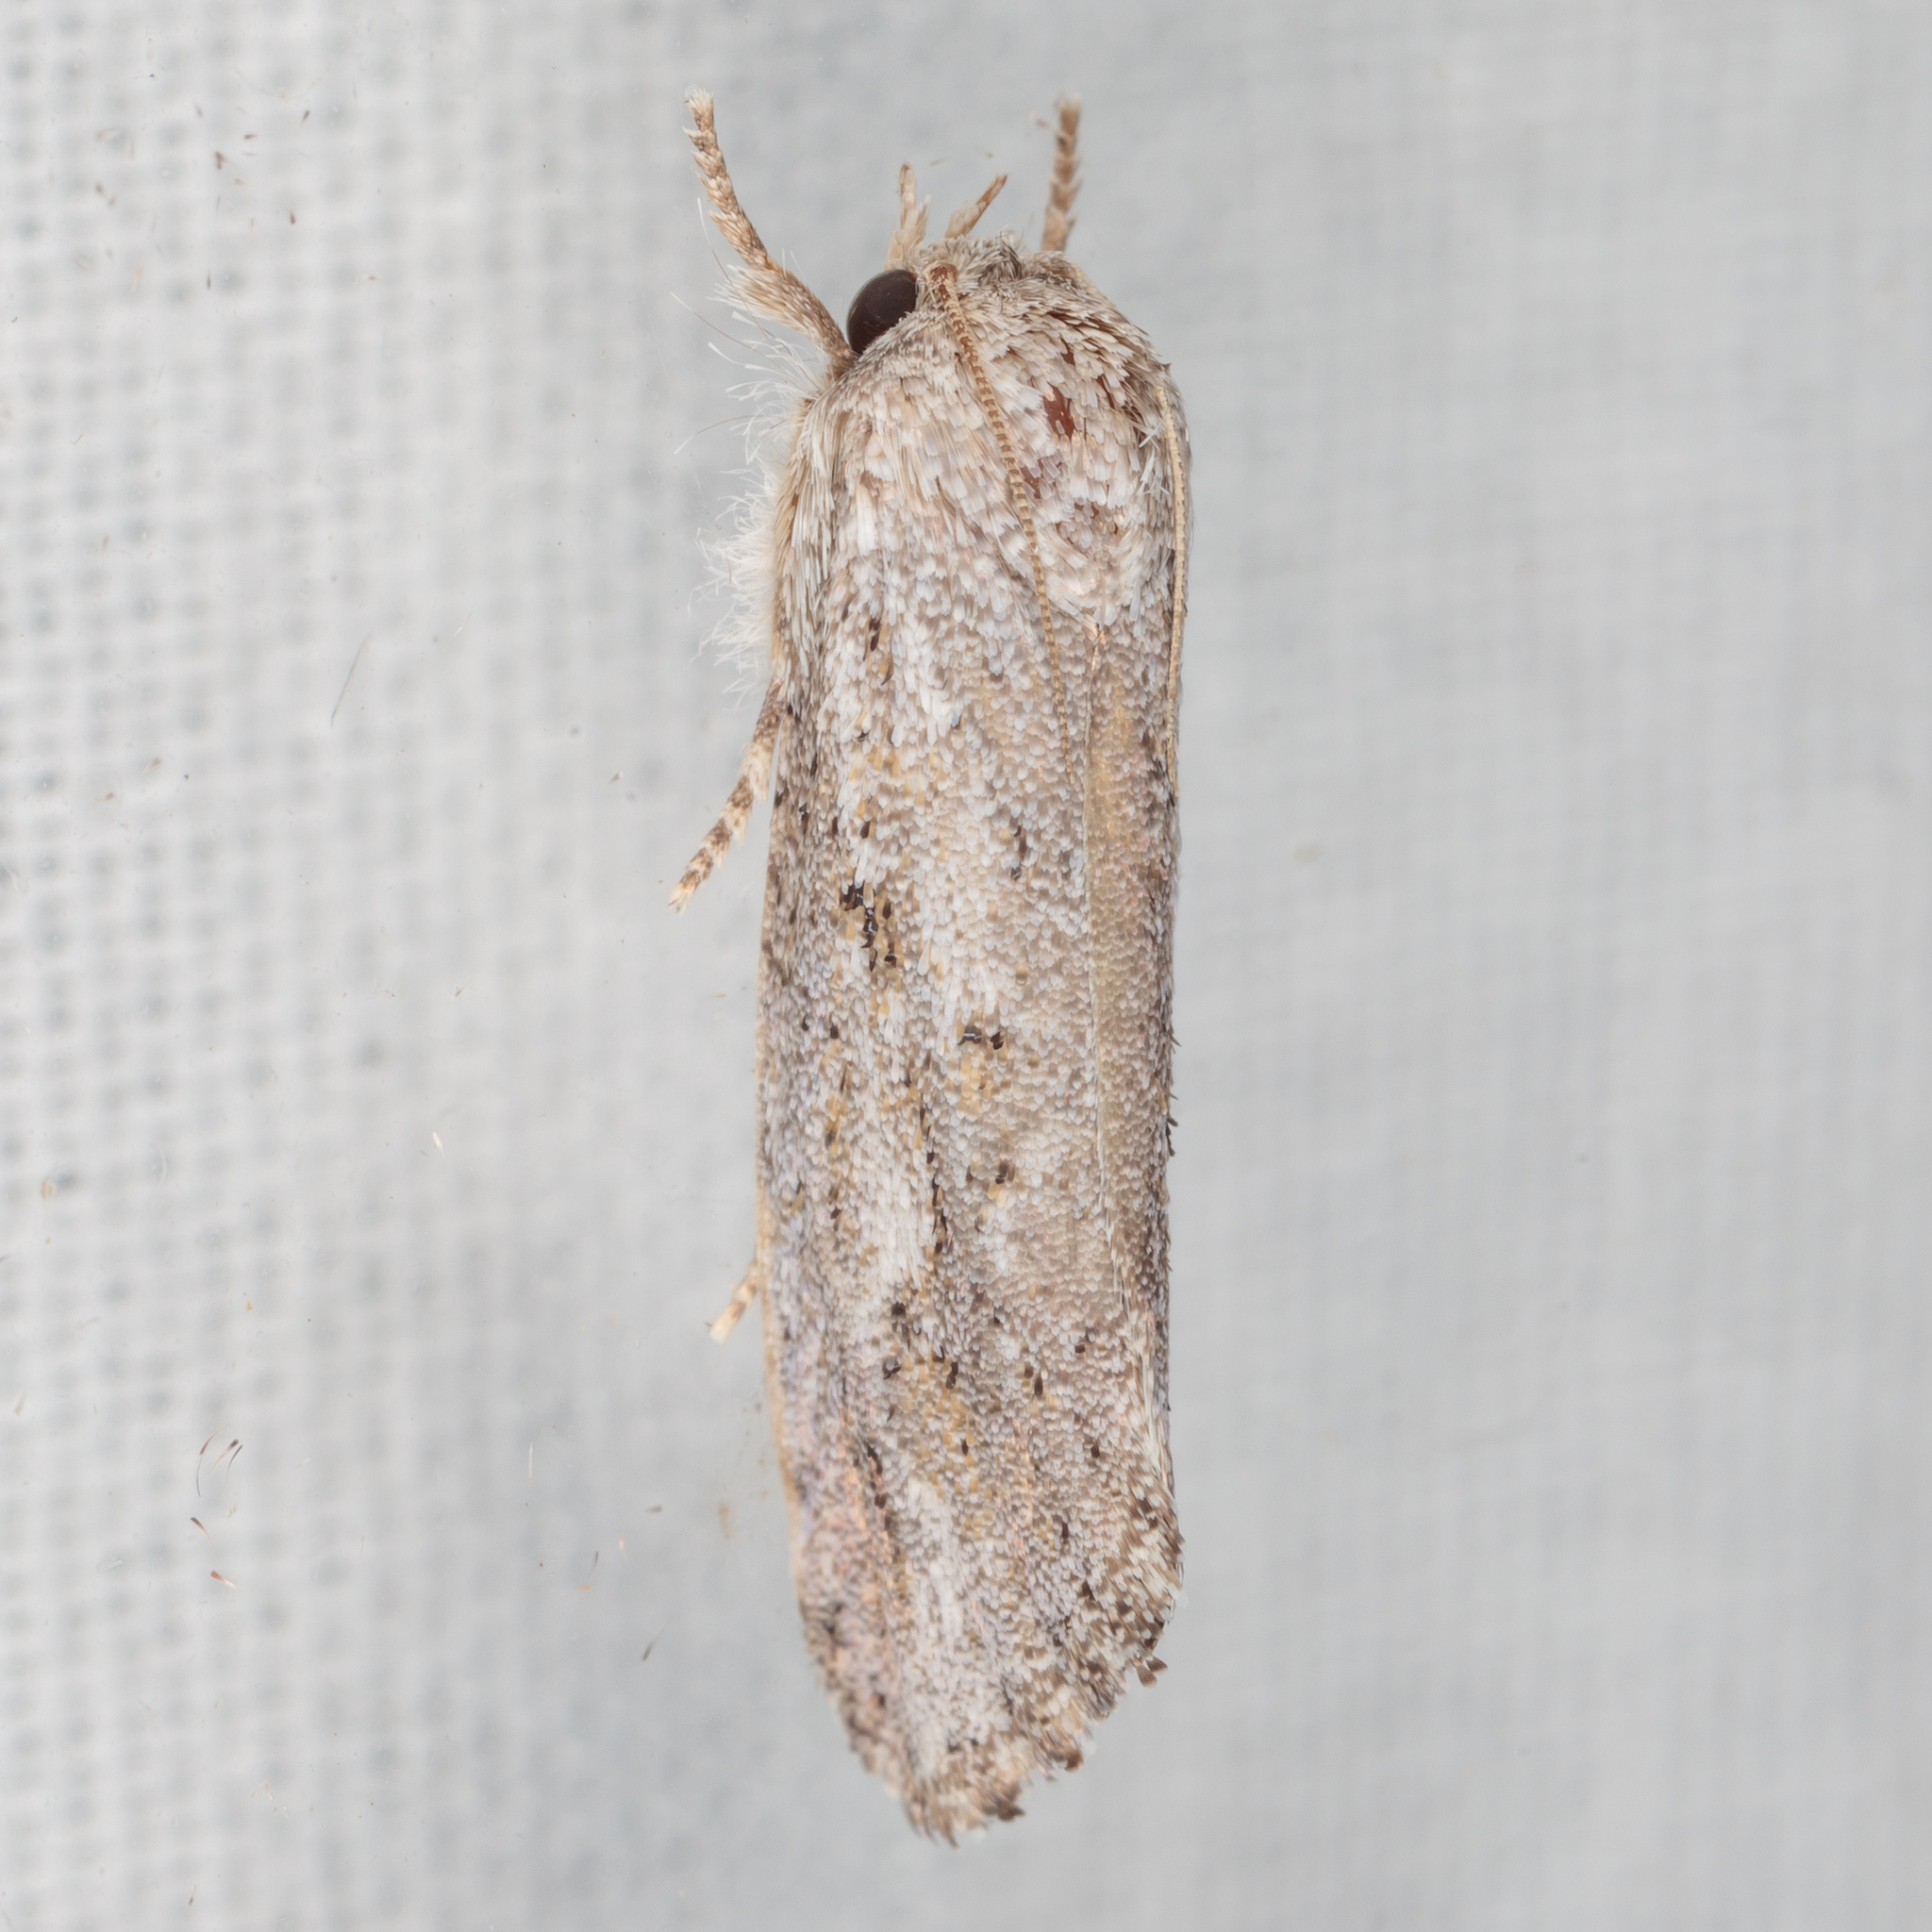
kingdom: Animalia
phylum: Arthropoda
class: Insecta
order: Lepidoptera
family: Tineidae
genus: Acrolophus
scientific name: Acrolophus griseus
